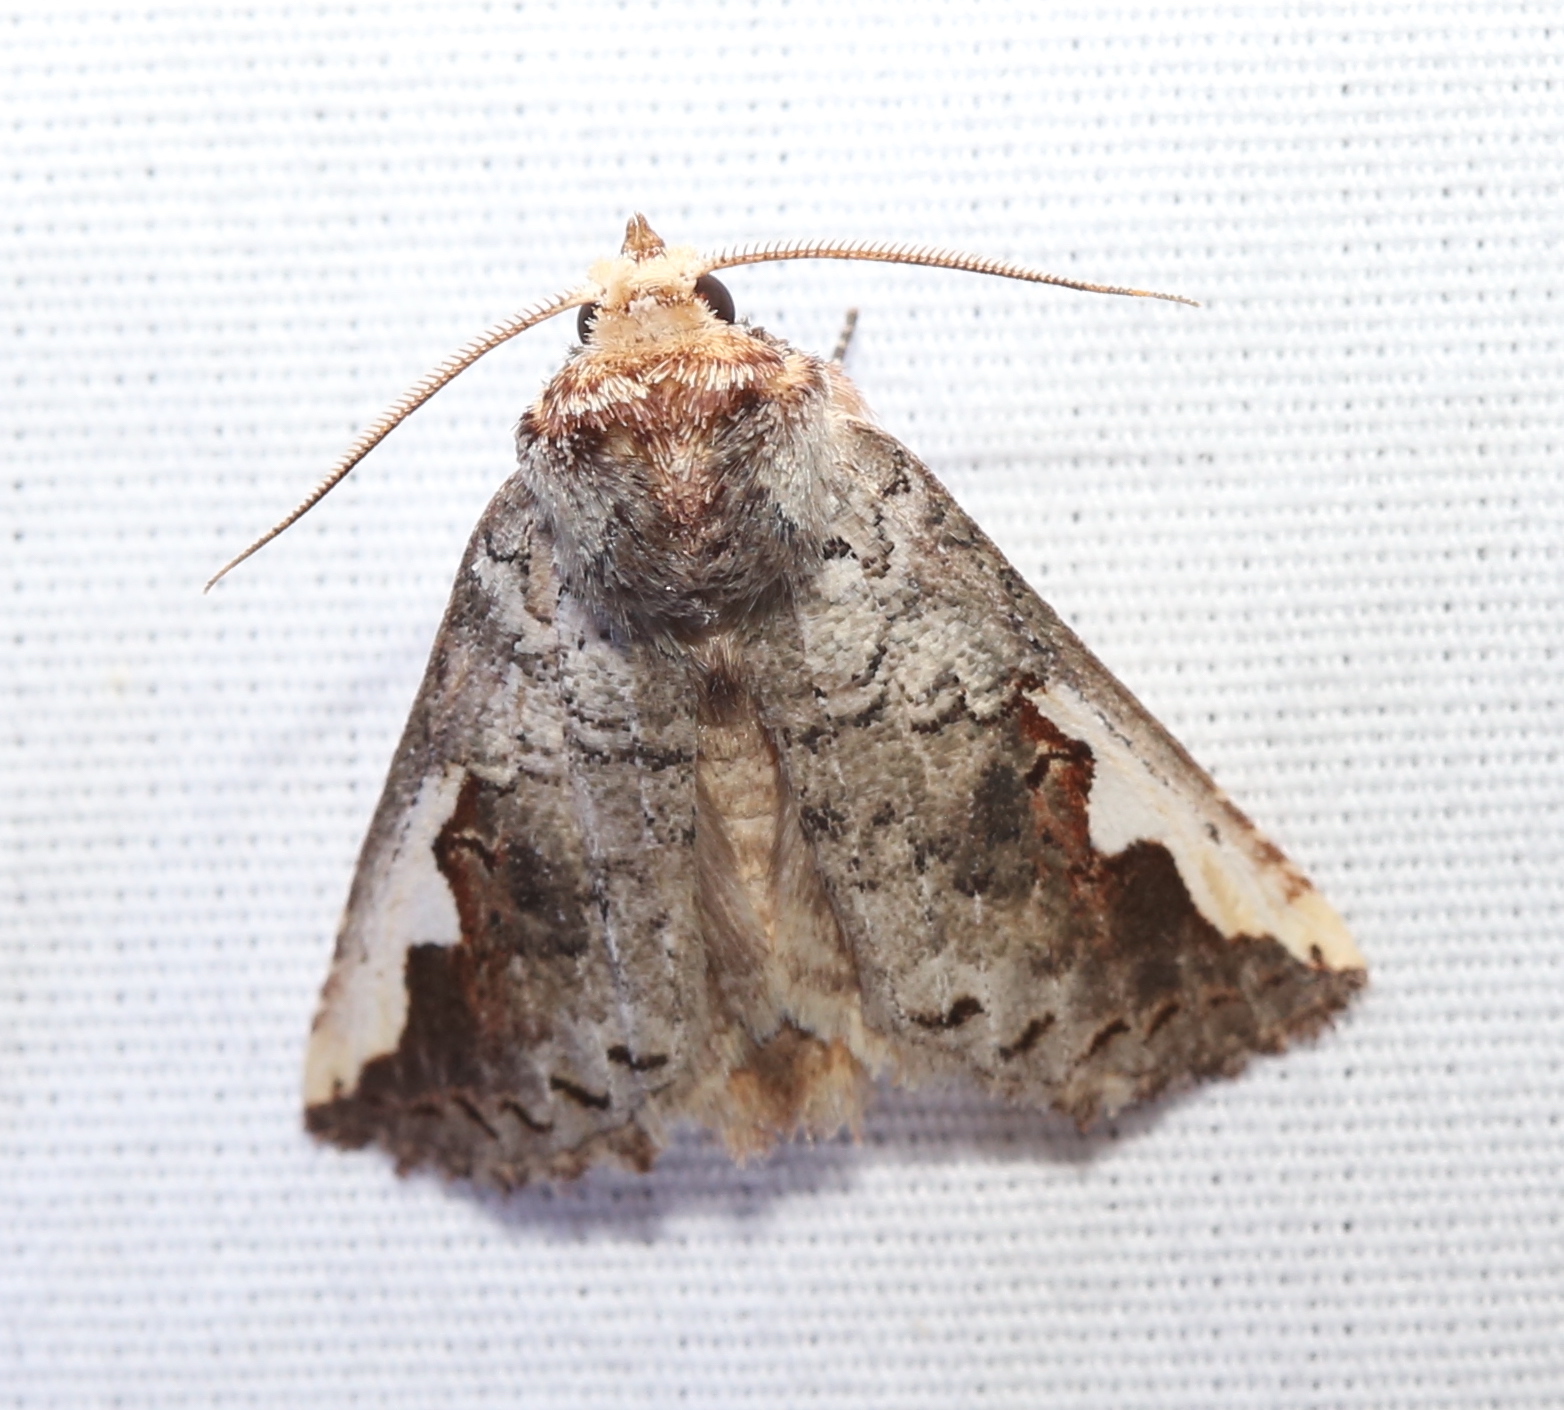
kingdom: Animalia
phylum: Arthropoda
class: Insecta
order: Lepidoptera
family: Notodontidae
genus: Symmerista
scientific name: Symmerista albifrons
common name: White-headed prominent
